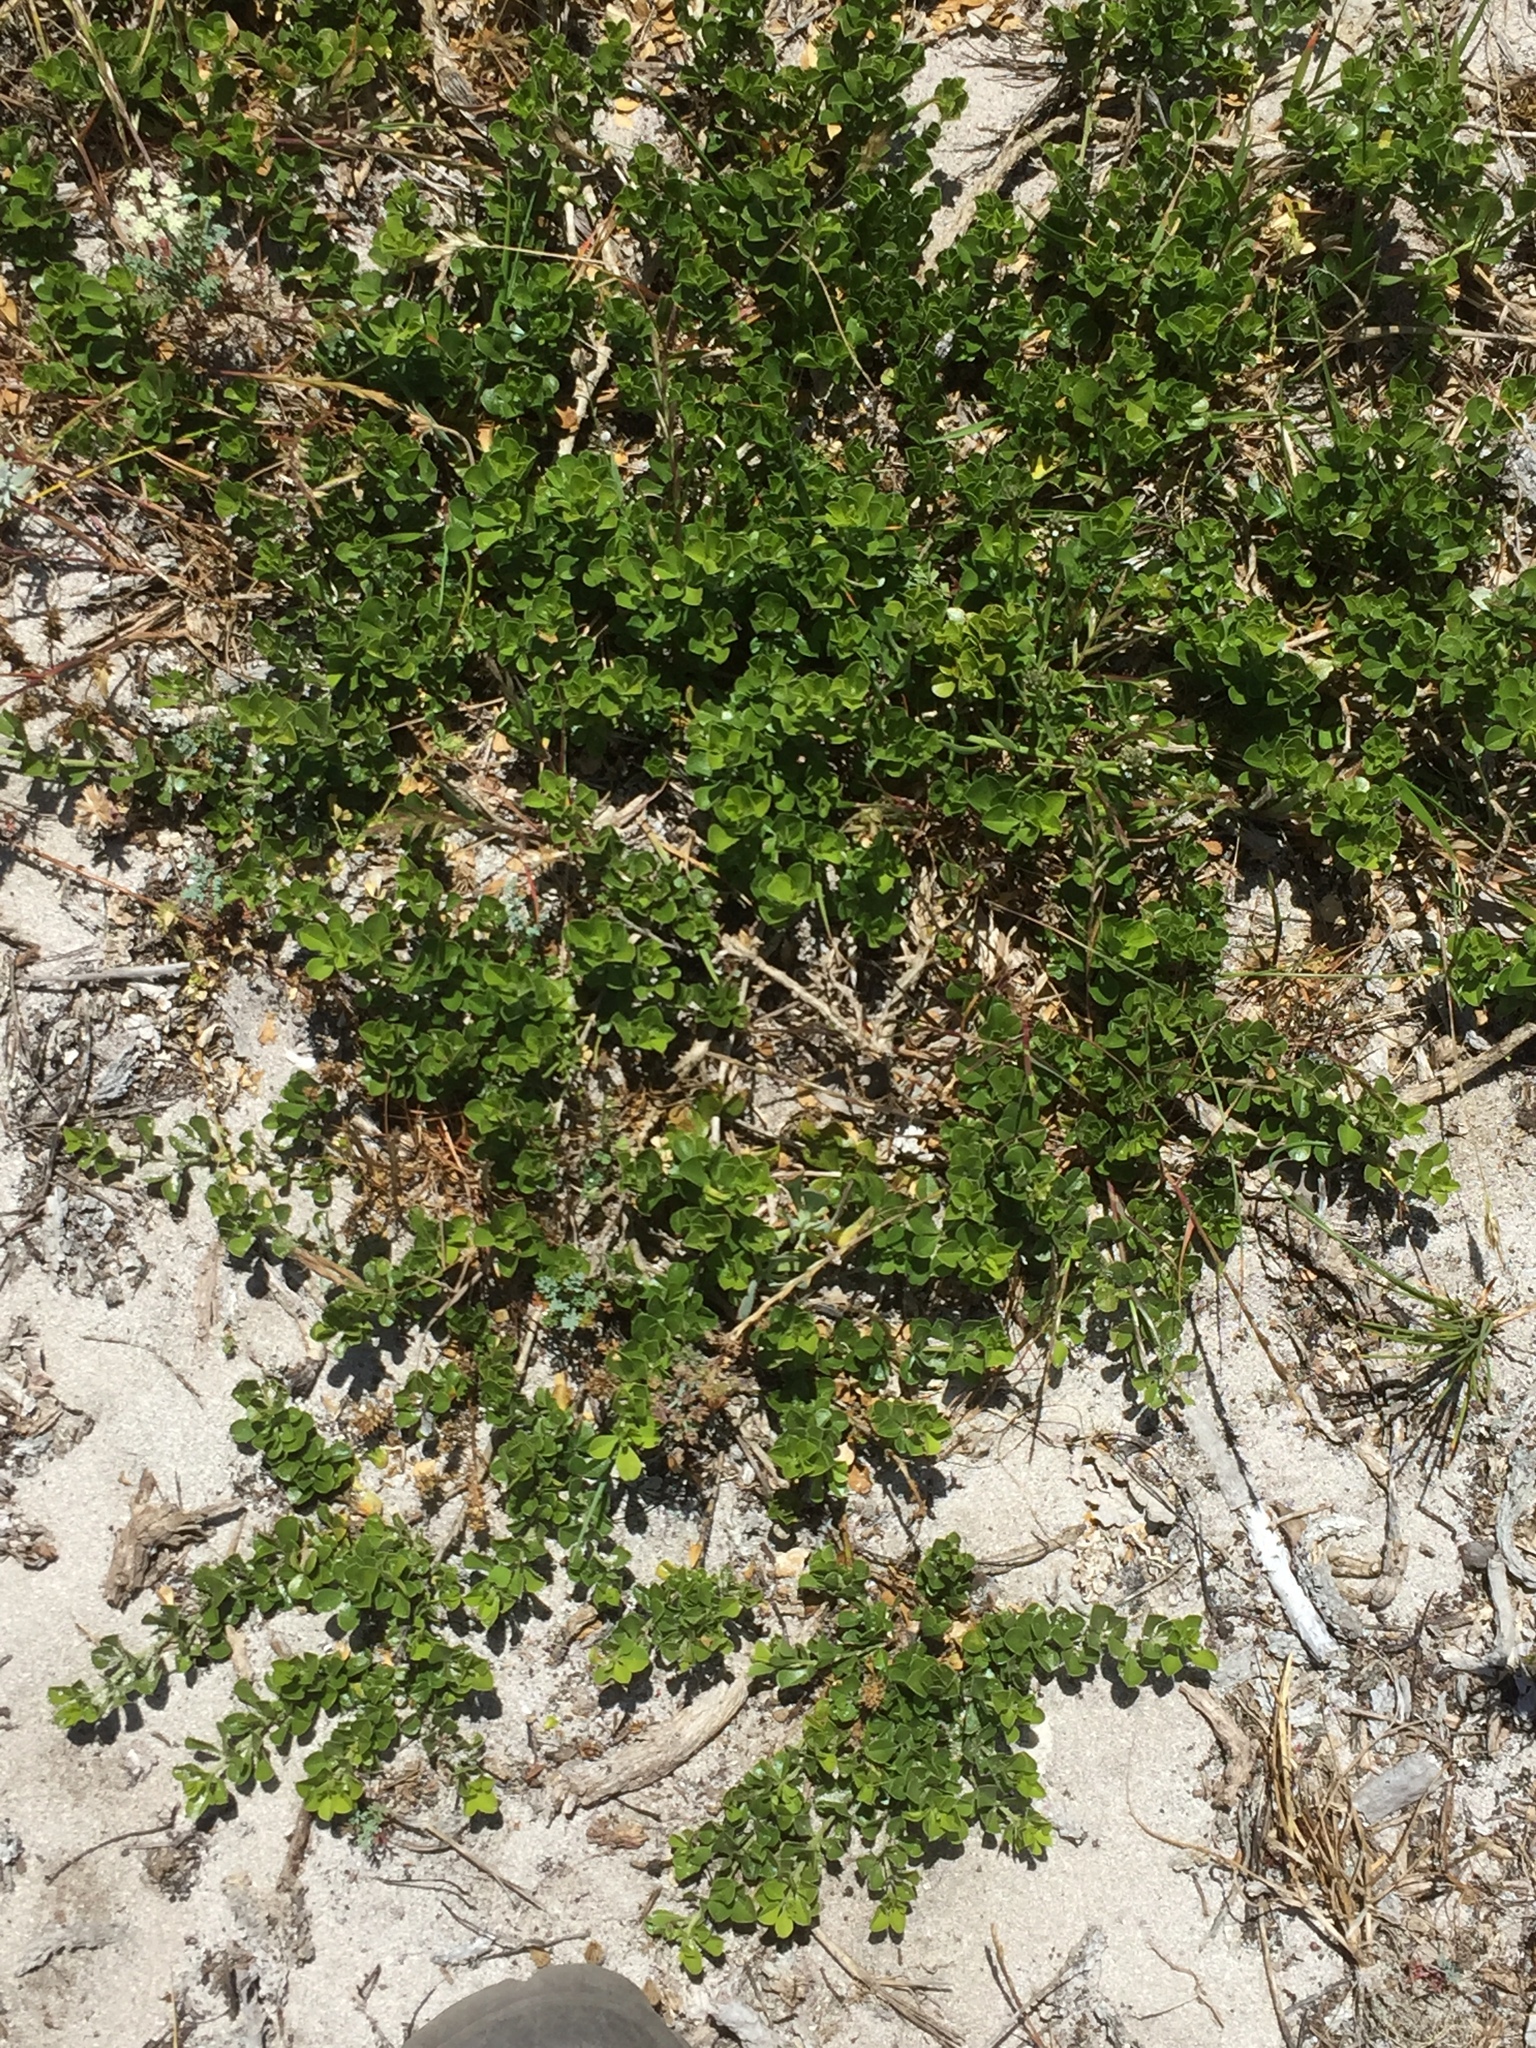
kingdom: Plantae
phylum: Tracheophyta
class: Magnoliopsida
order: Fabales
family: Fabaceae
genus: Psoralea
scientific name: Psoralea bracteolata
